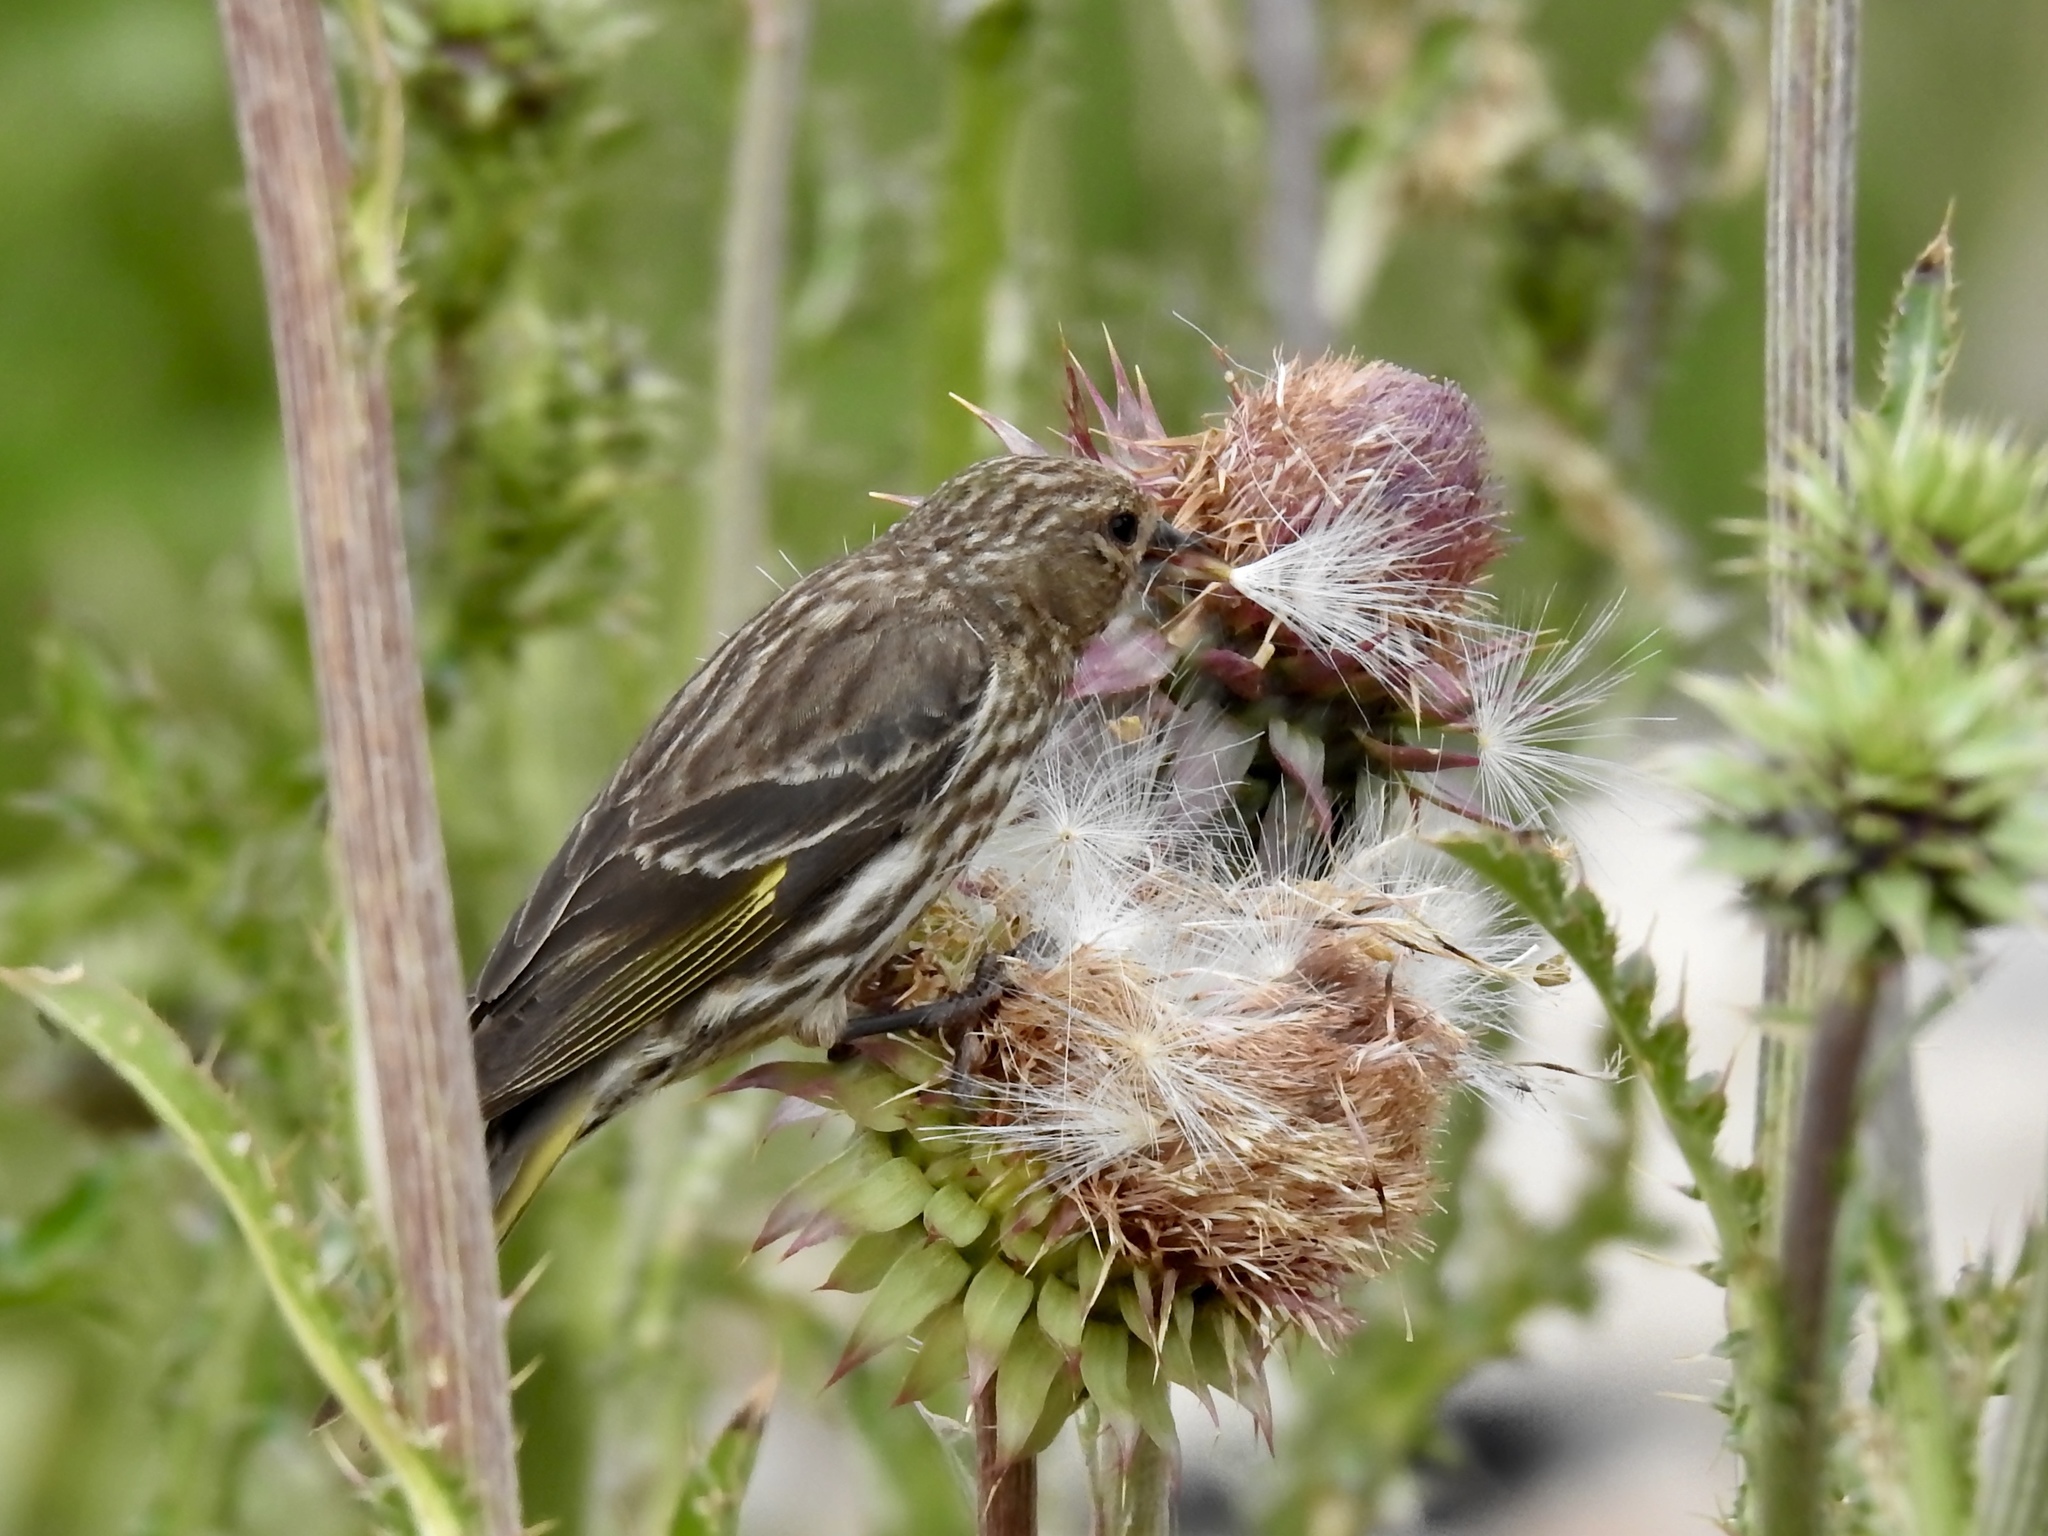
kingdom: Animalia
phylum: Chordata
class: Aves
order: Passeriformes
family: Fringillidae
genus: Spinus
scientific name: Spinus pinus
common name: Pine siskin
